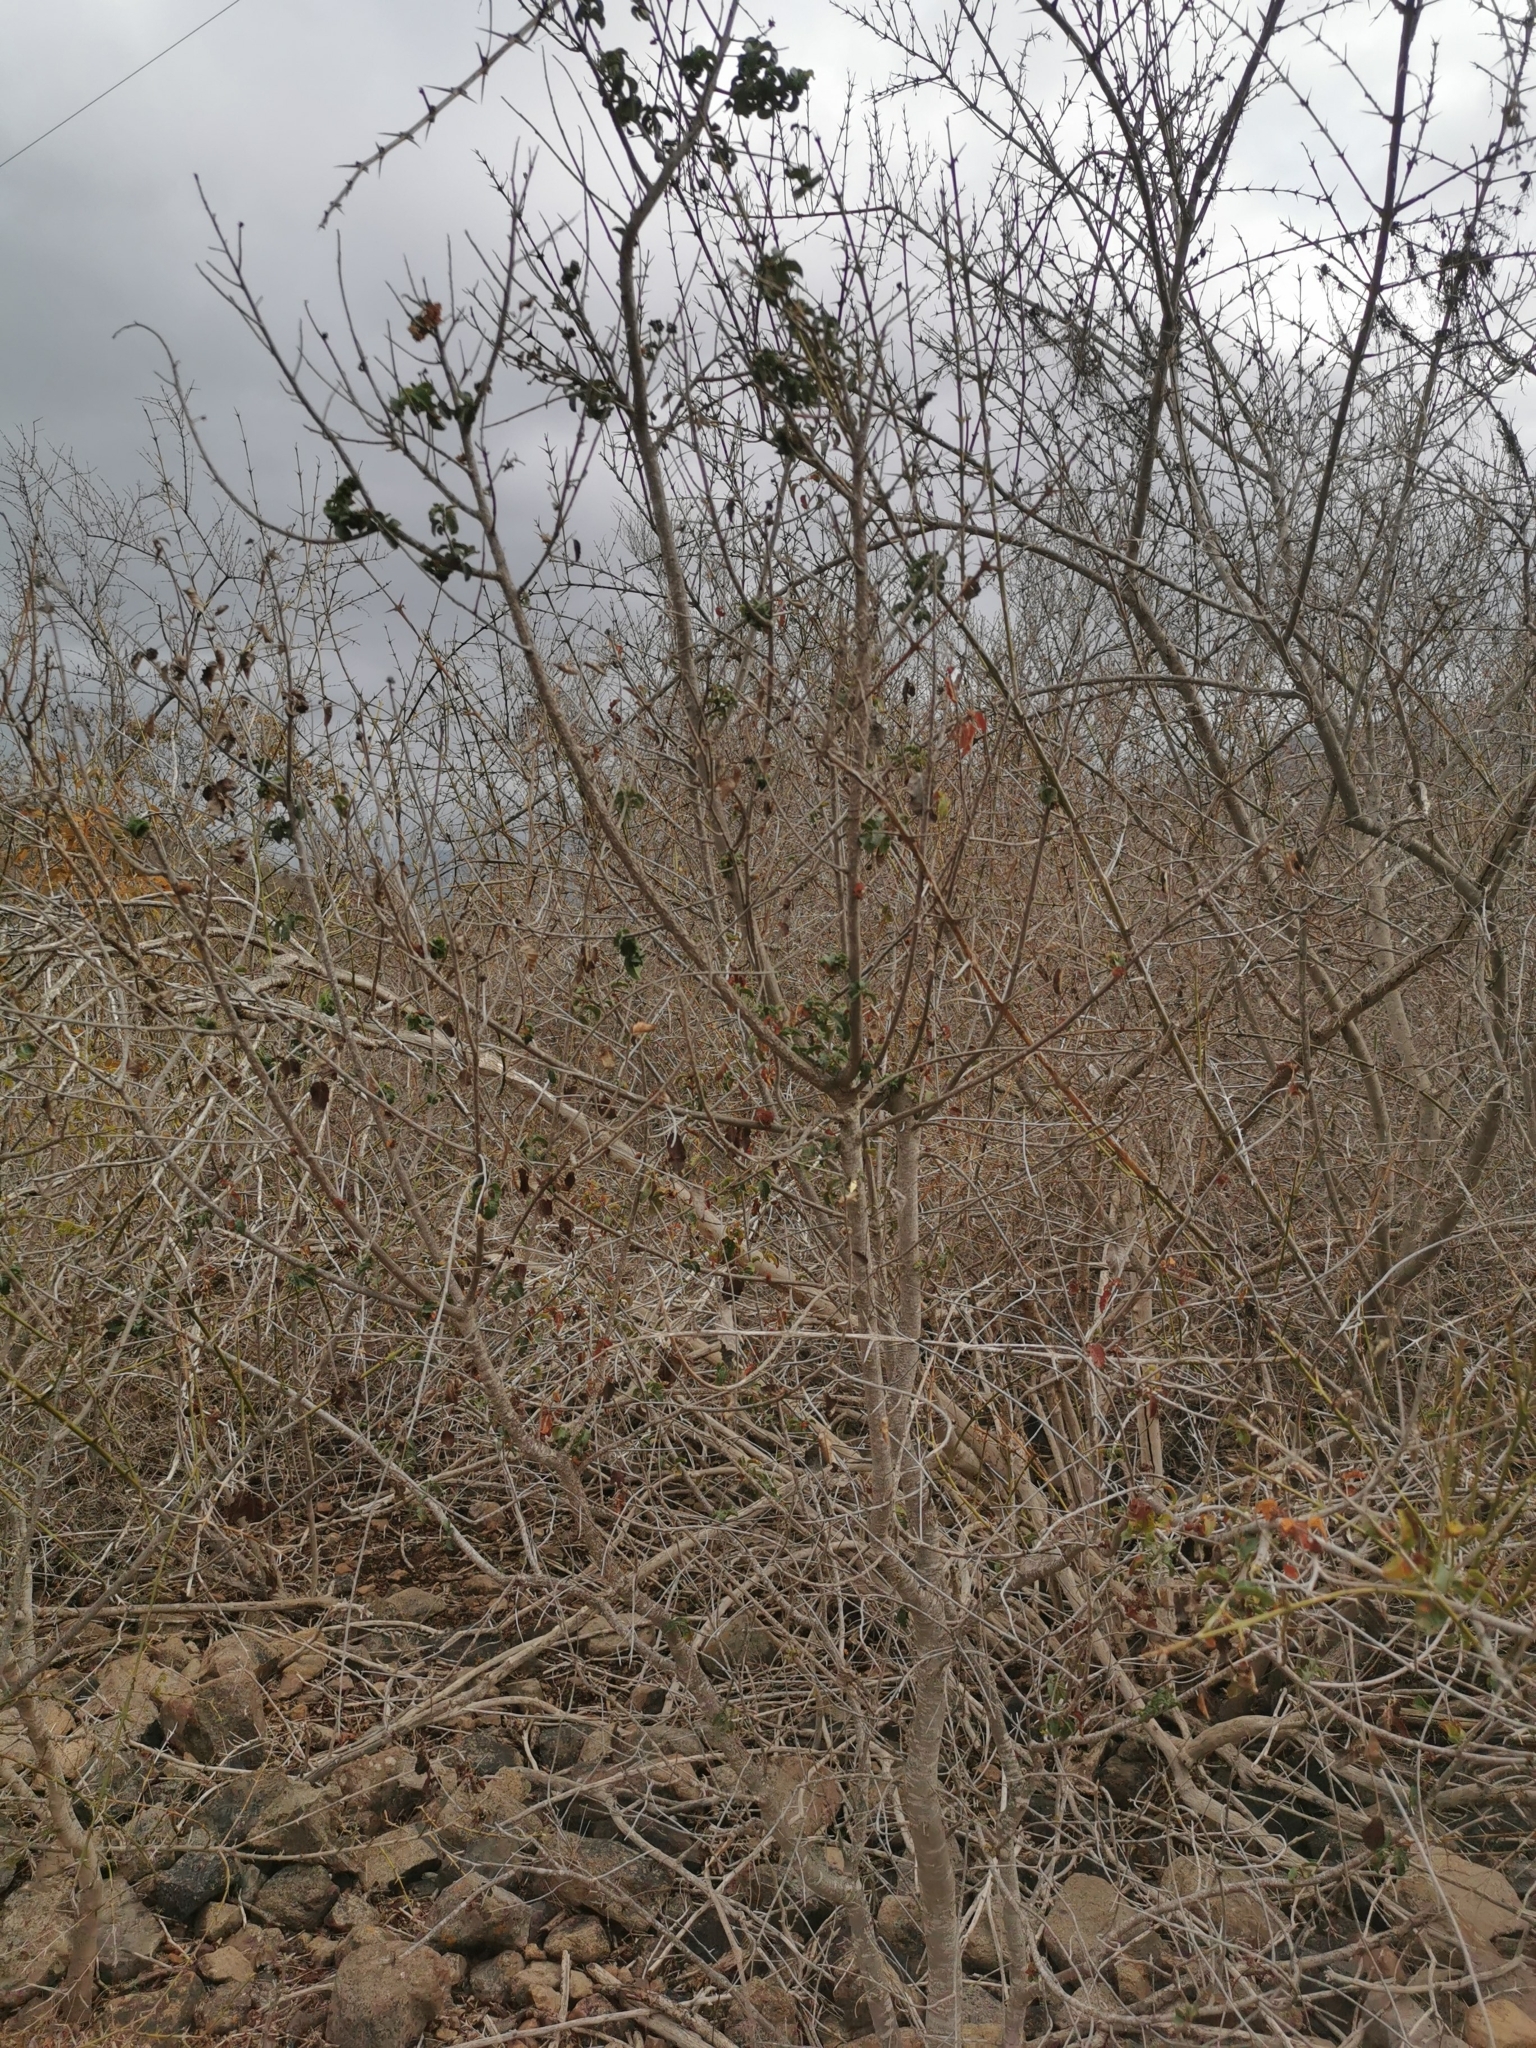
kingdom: Plantae
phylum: Tracheophyta
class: Magnoliopsida
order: Sapindales
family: Anacardiaceae
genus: Schinus
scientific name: Schinus latifolia
